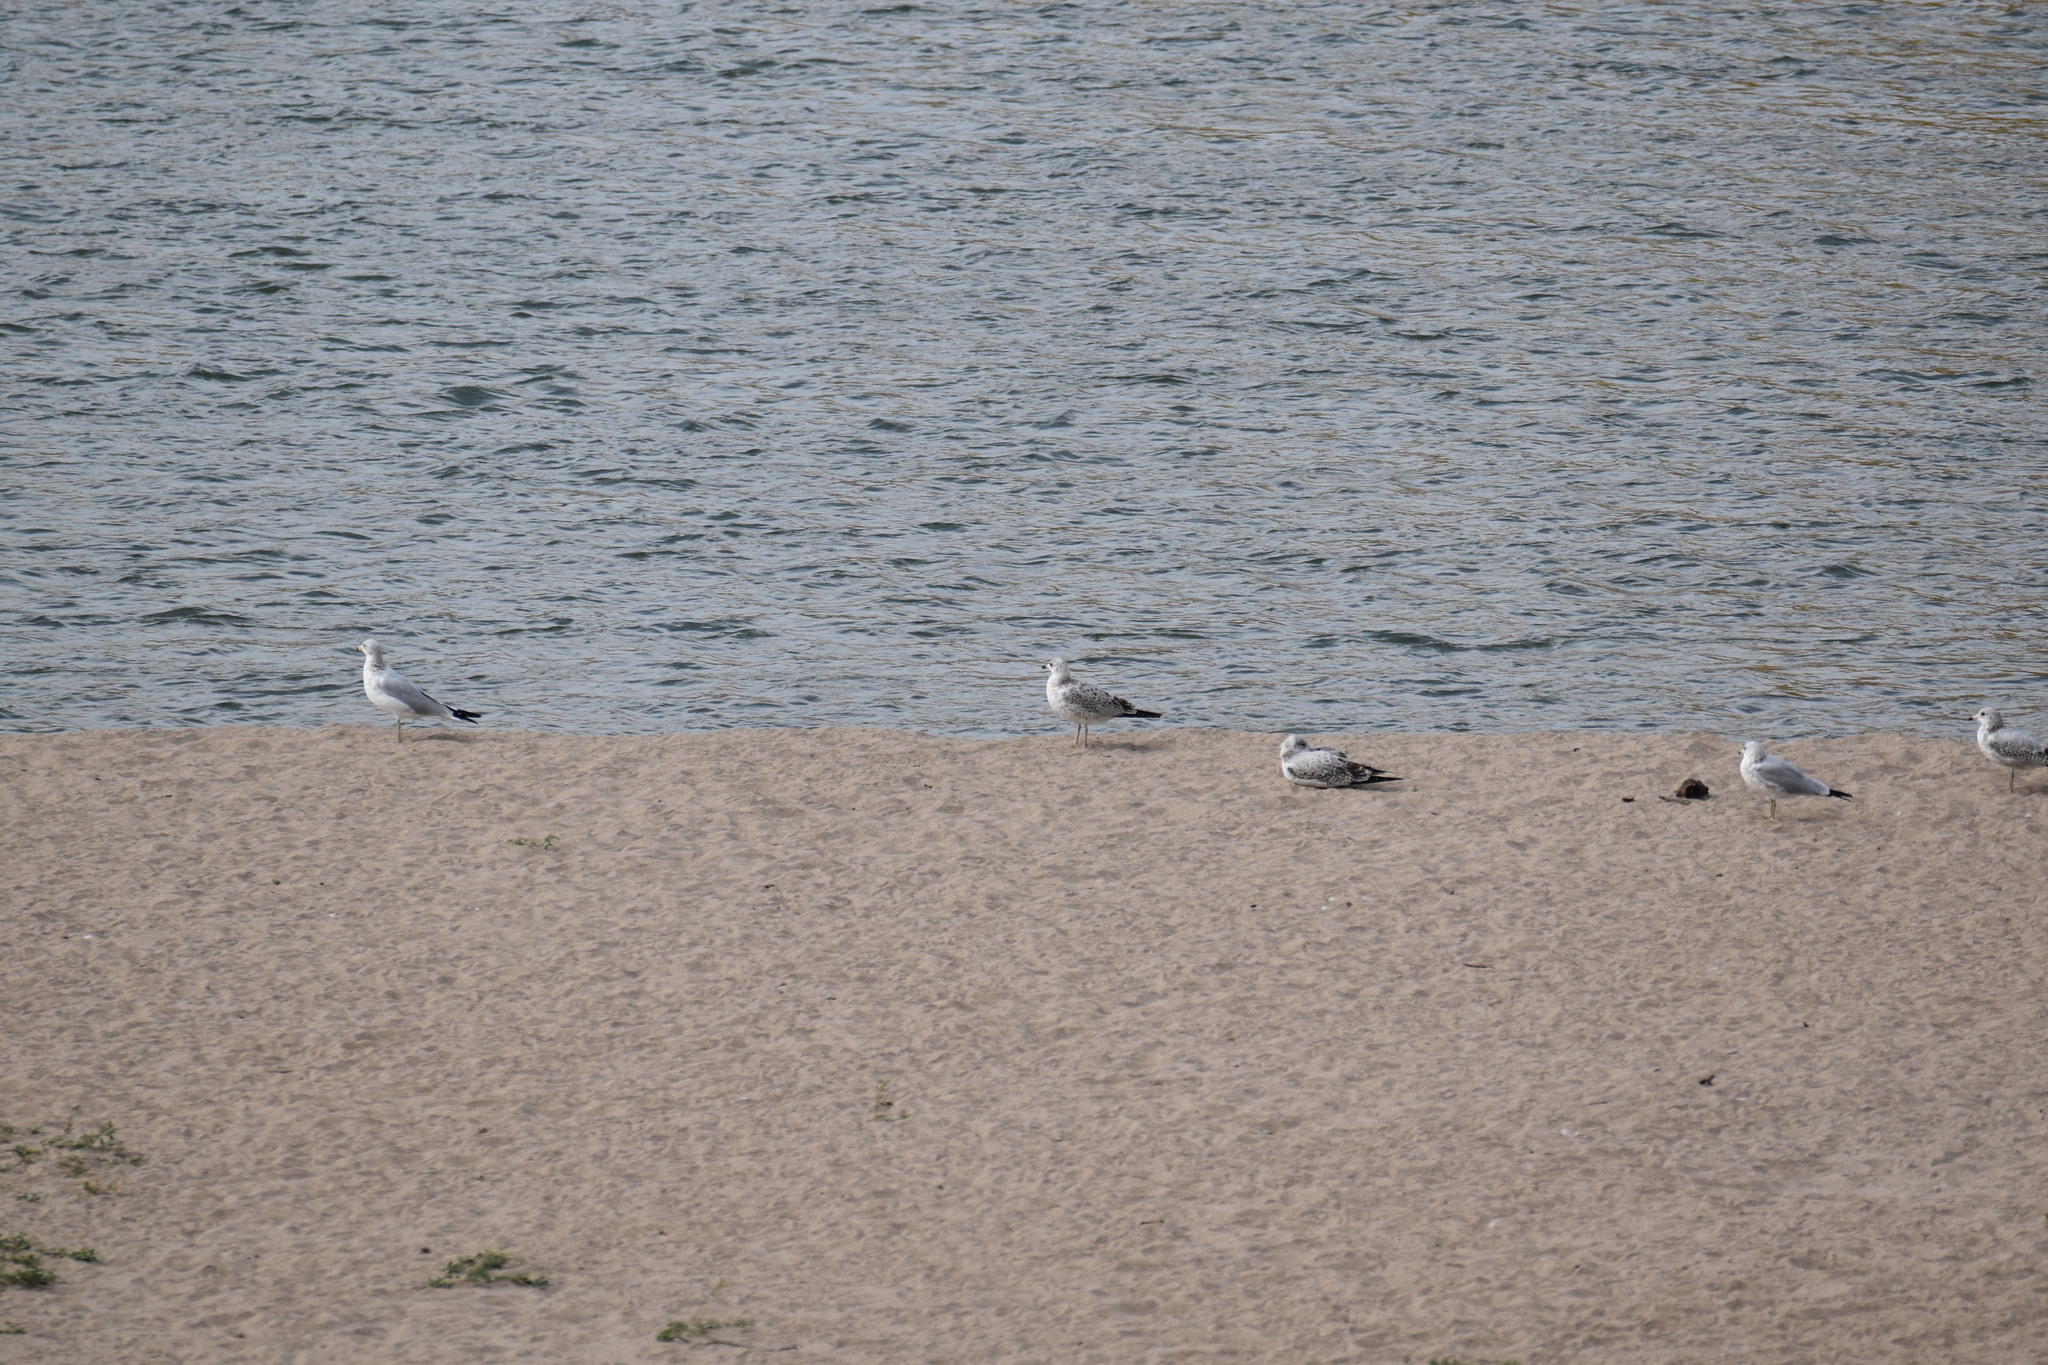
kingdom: Animalia
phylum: Chordata
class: Aves
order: Charadriiformes
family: Laridae
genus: Larus
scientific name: Larus delawarensis
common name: Ring-billed gull
